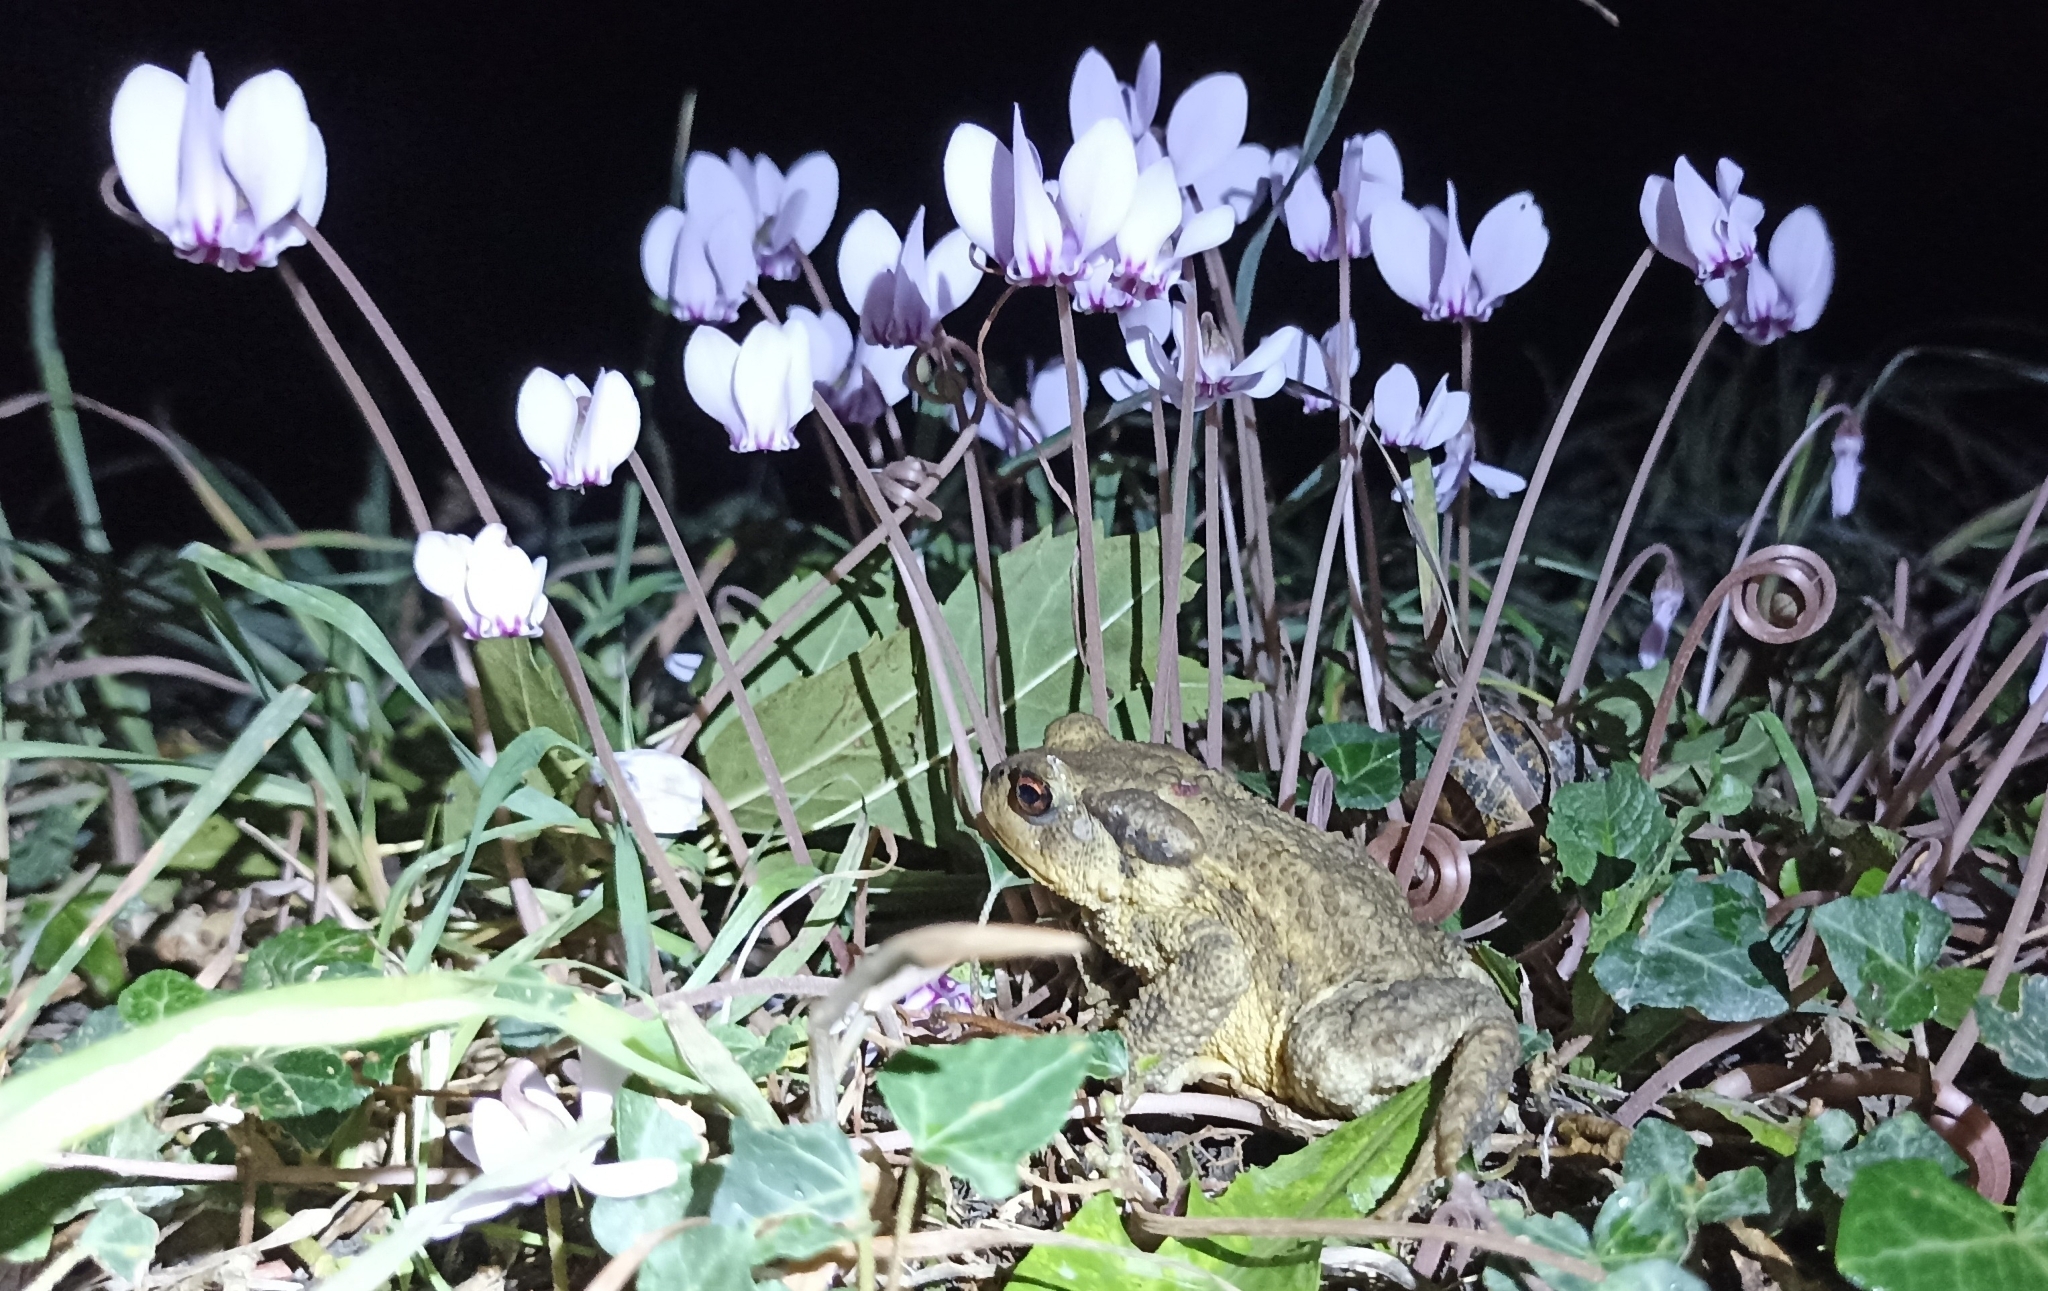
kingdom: Animalia
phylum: Chordata
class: Amphibia
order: Anura
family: Bufonidae
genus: Bufo
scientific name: Bufo spinosus
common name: Western common toad
